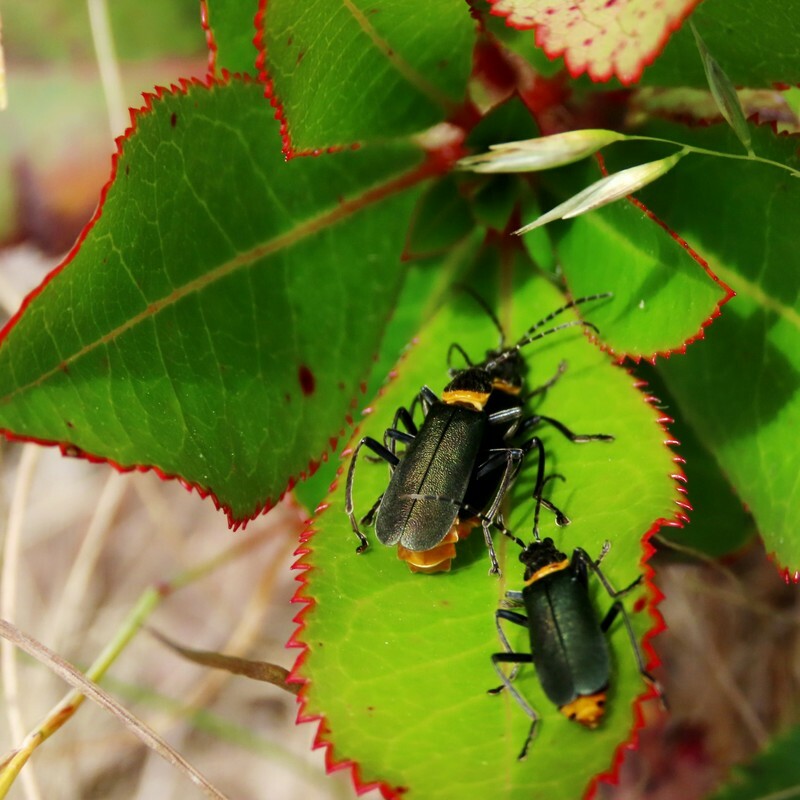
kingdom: Animalia
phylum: Arthropoda
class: Insecta
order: Coleoptera
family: Cantharidae
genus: Chauliognathus
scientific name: Chauliognathus
